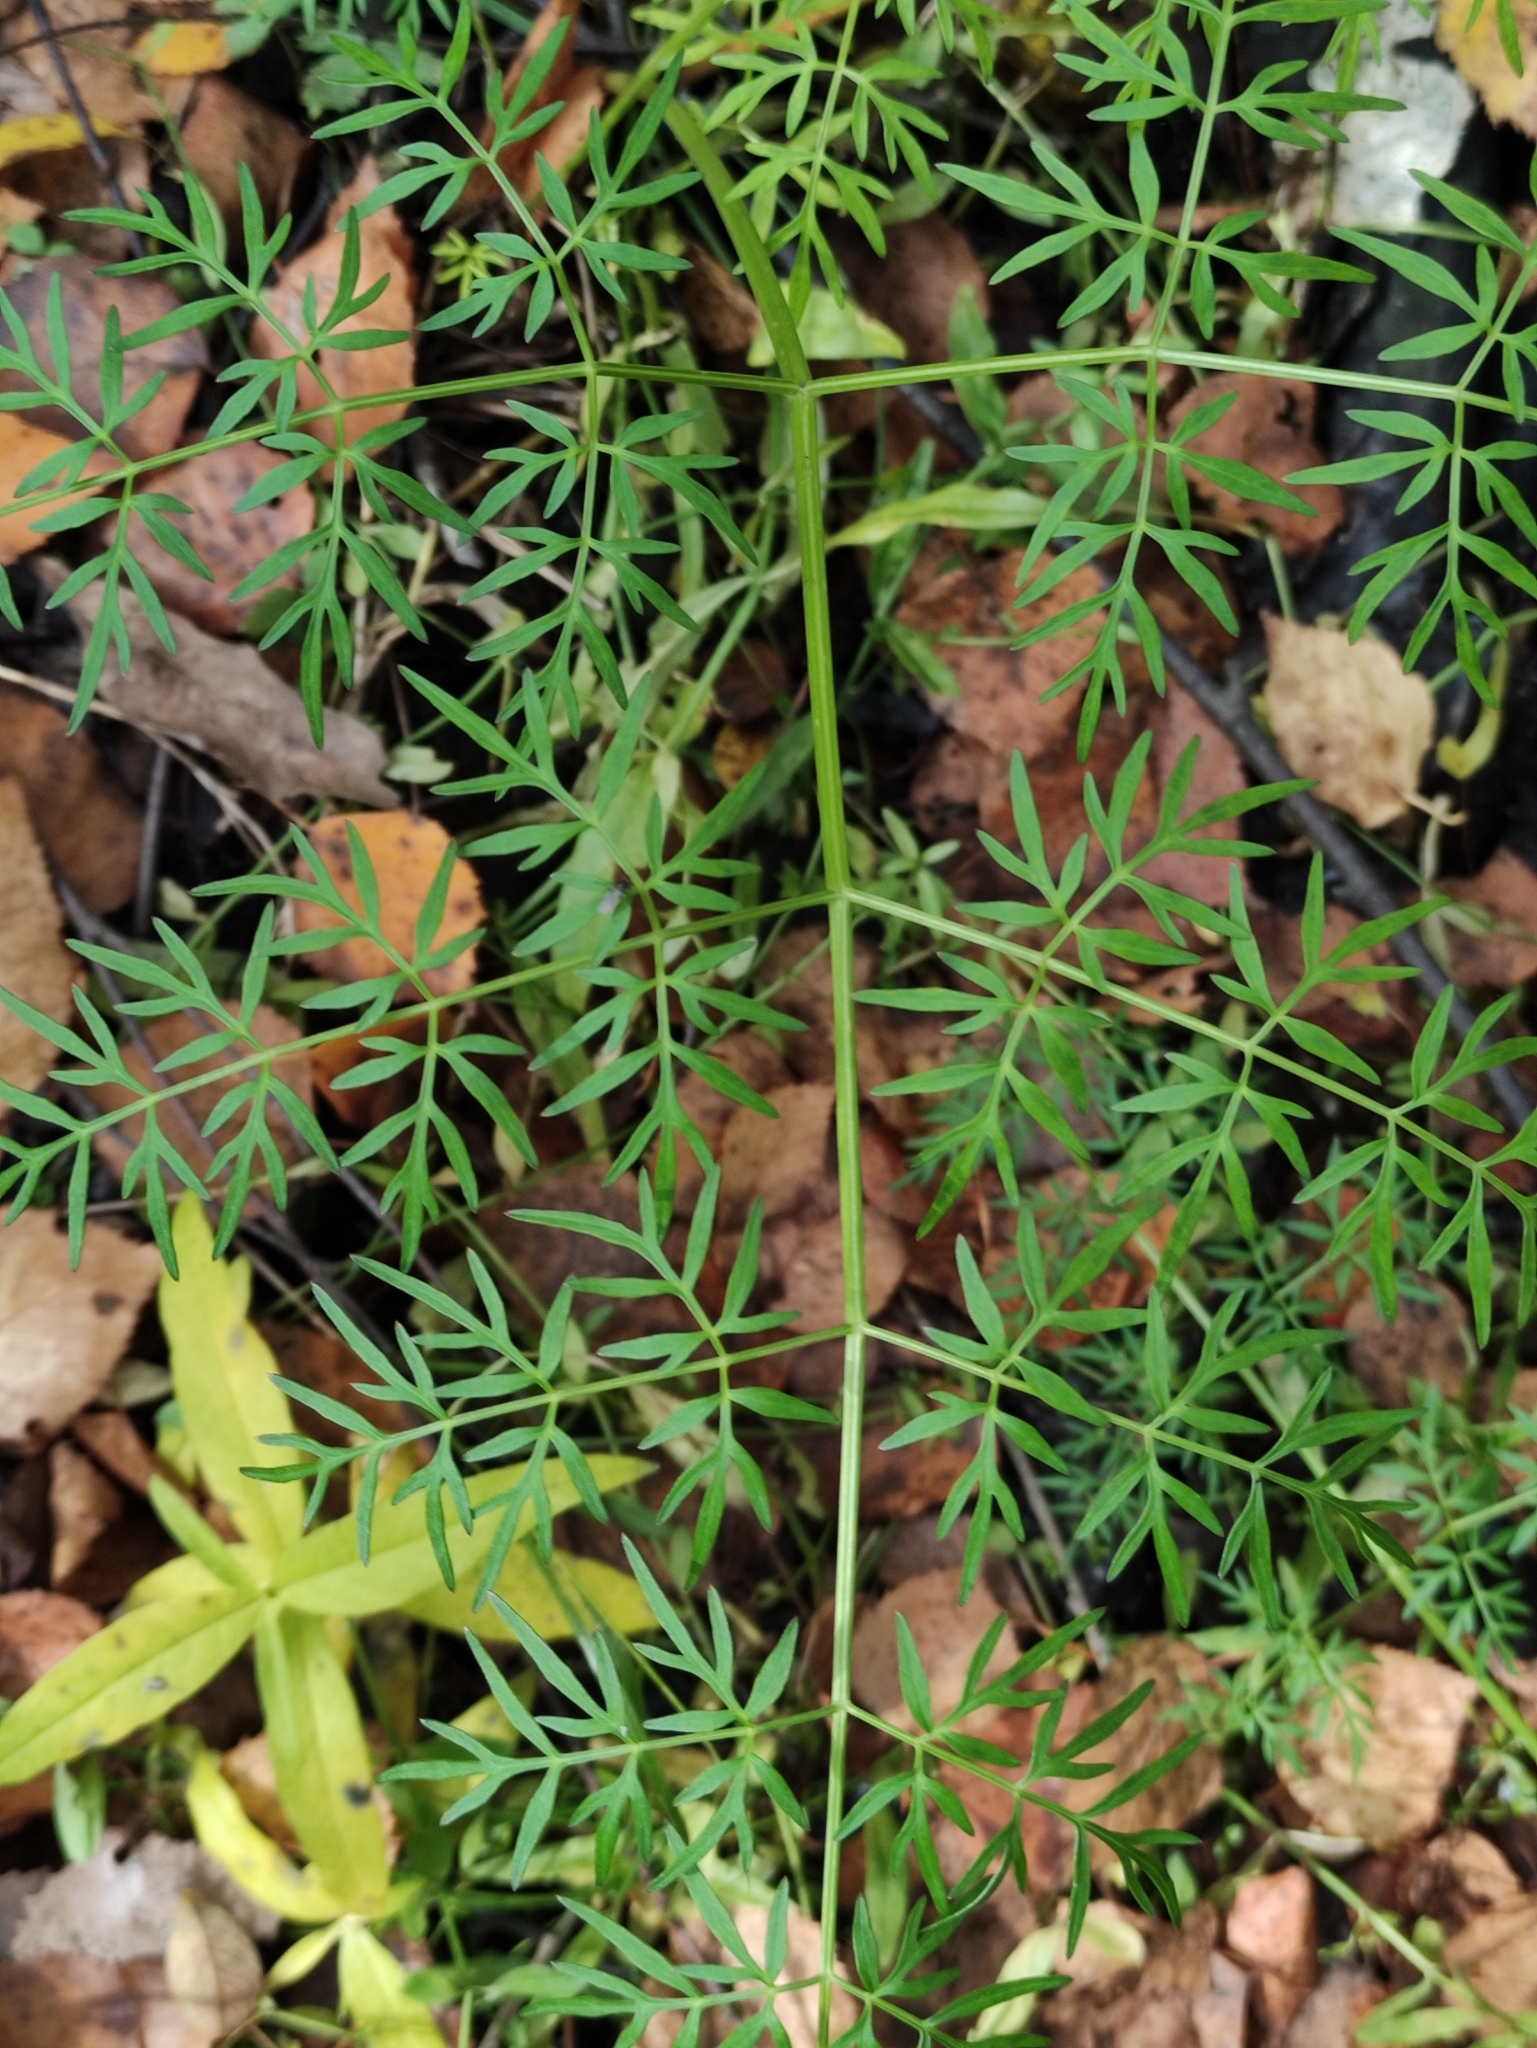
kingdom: Plantae
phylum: Tracheophyta
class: Magnoliopsida
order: Apiales
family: Apiaceae
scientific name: Apiaceae
